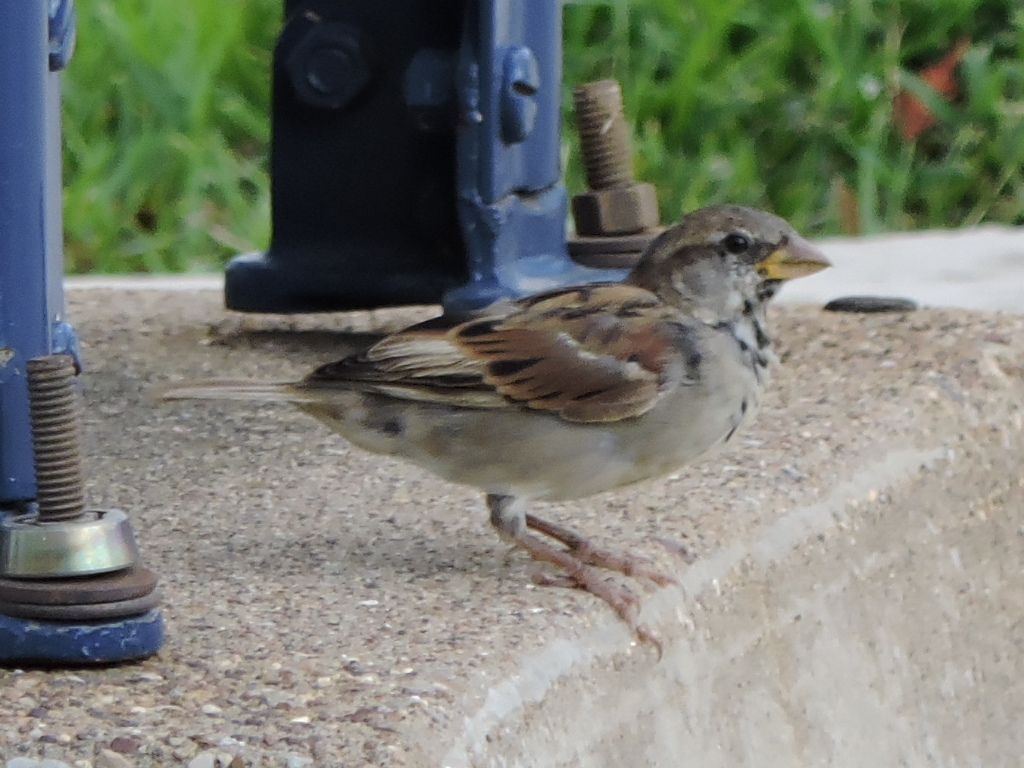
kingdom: Animalia
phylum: Chordata
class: Aves
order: Passeriformes
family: Passeridae
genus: Passer
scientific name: Passer domesticus
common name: House sparrow
